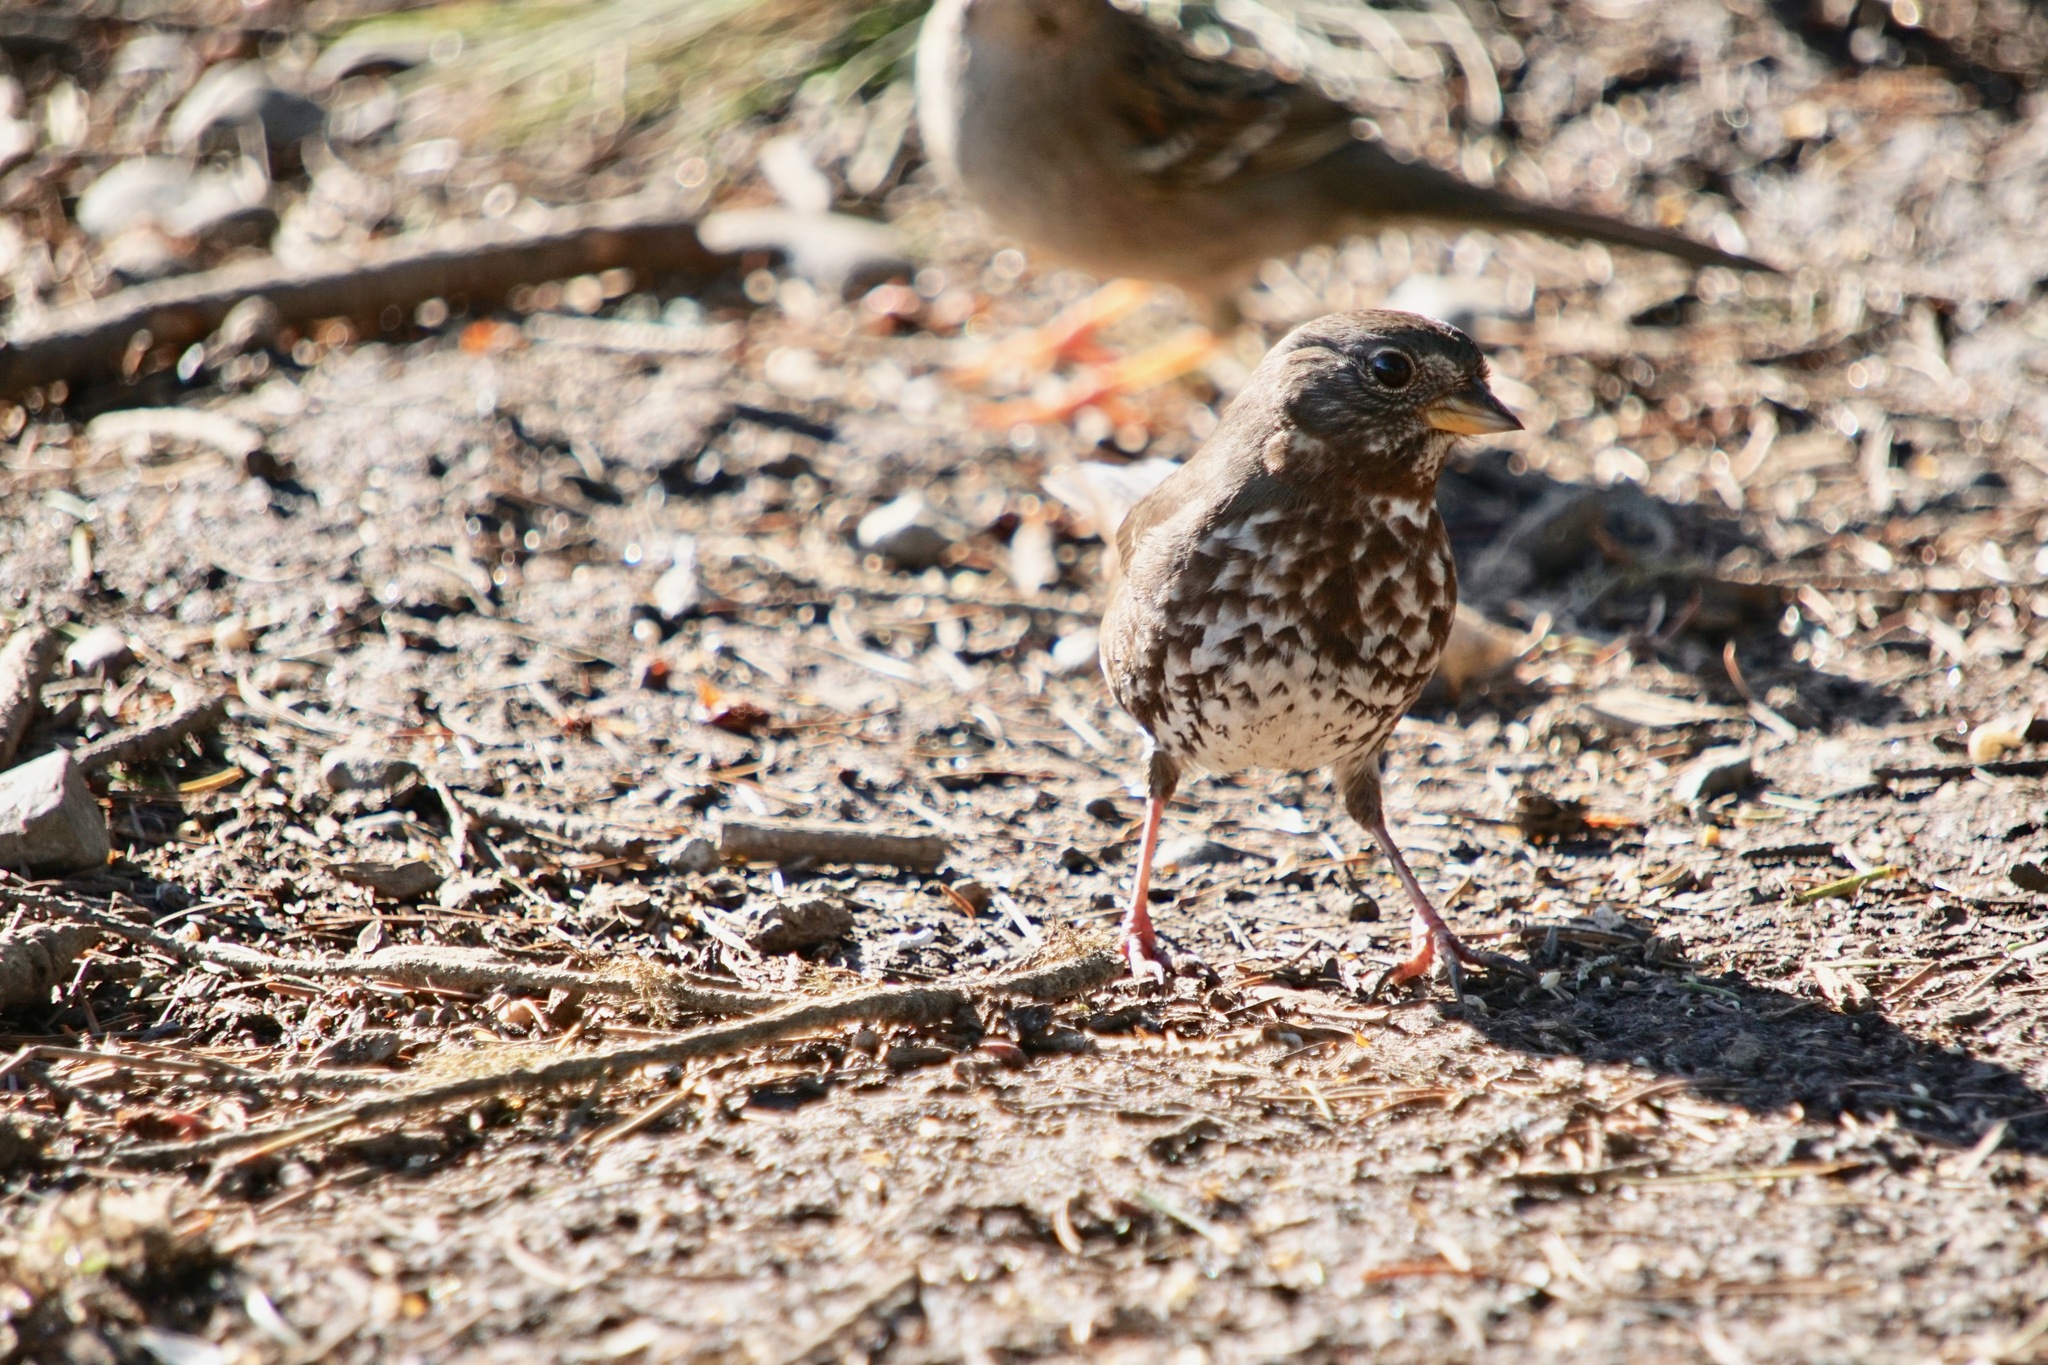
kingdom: Animalia
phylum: Chordata
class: Aves
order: Passeriformes
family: Passerellidae
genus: Passerella
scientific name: Passerella iliaca
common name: Fox sparrow
